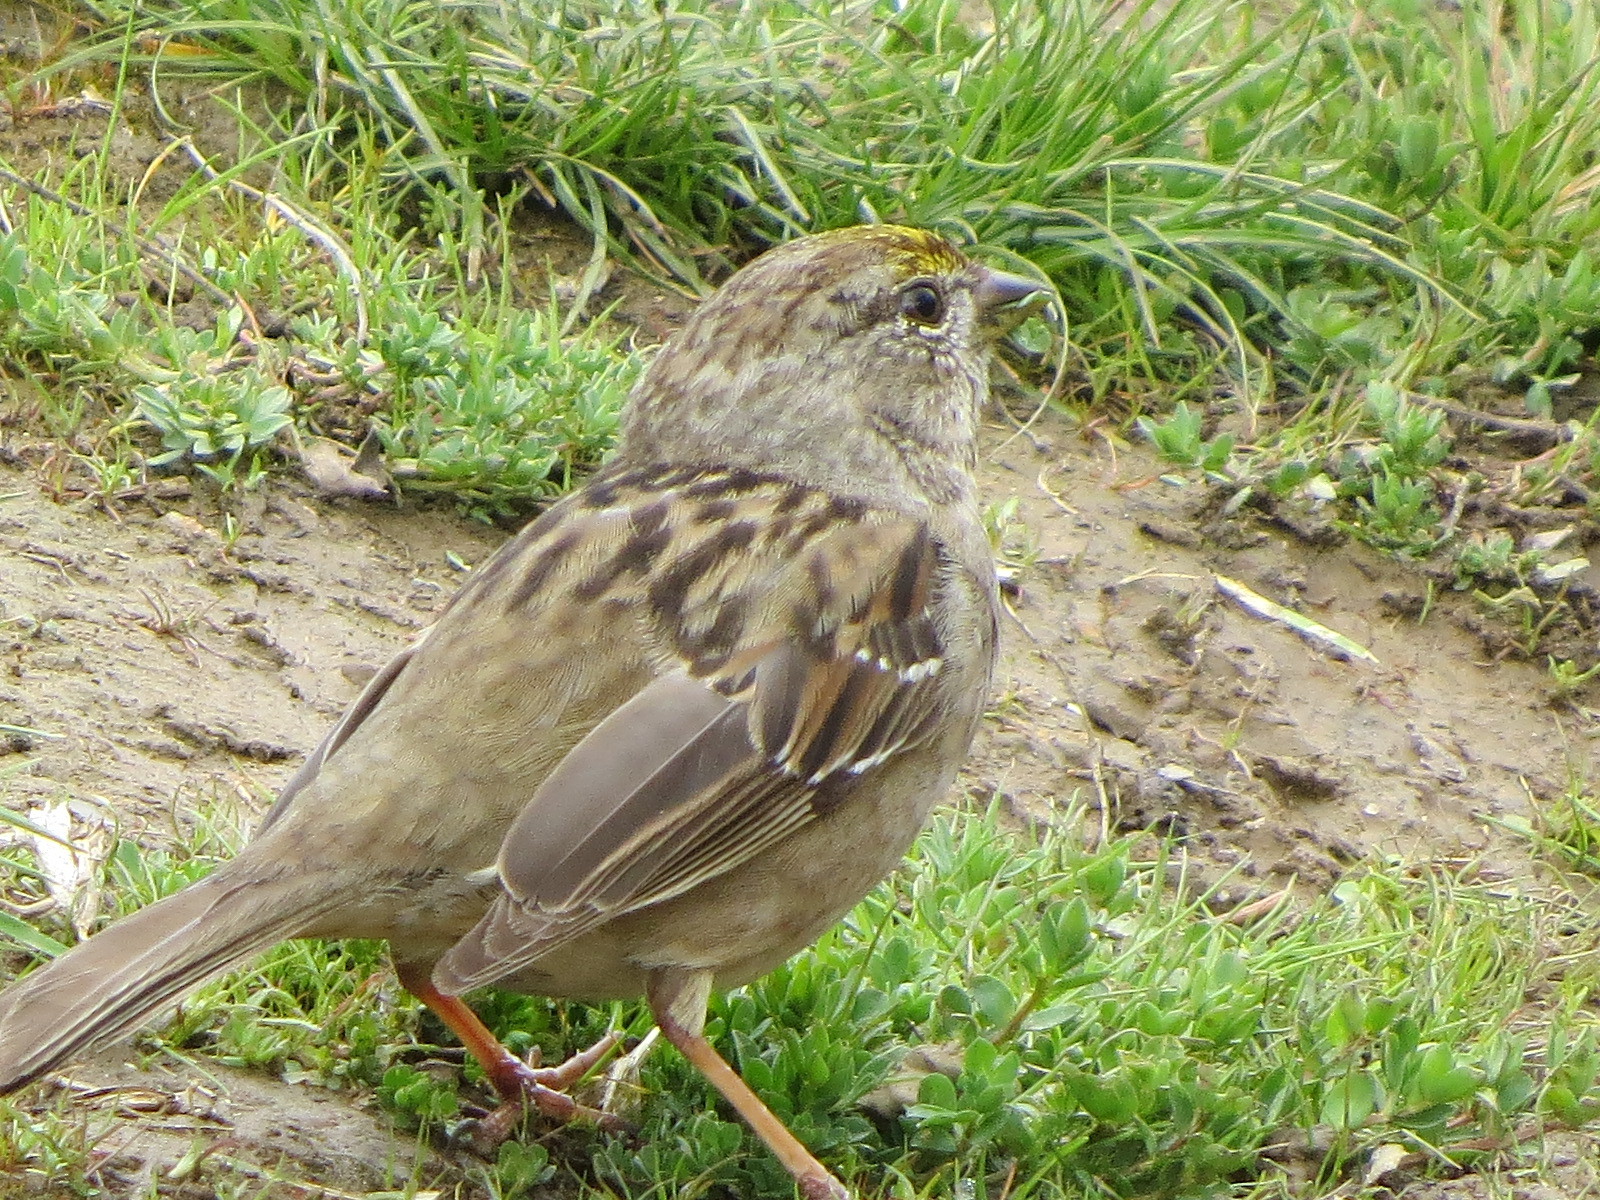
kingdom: Animalia
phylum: Chordata
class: Aves
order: Passeriformes
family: Passerellidae
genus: Zonotrichia
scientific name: Zonotrichia atricapilla
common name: Golden-crowned sparrow
